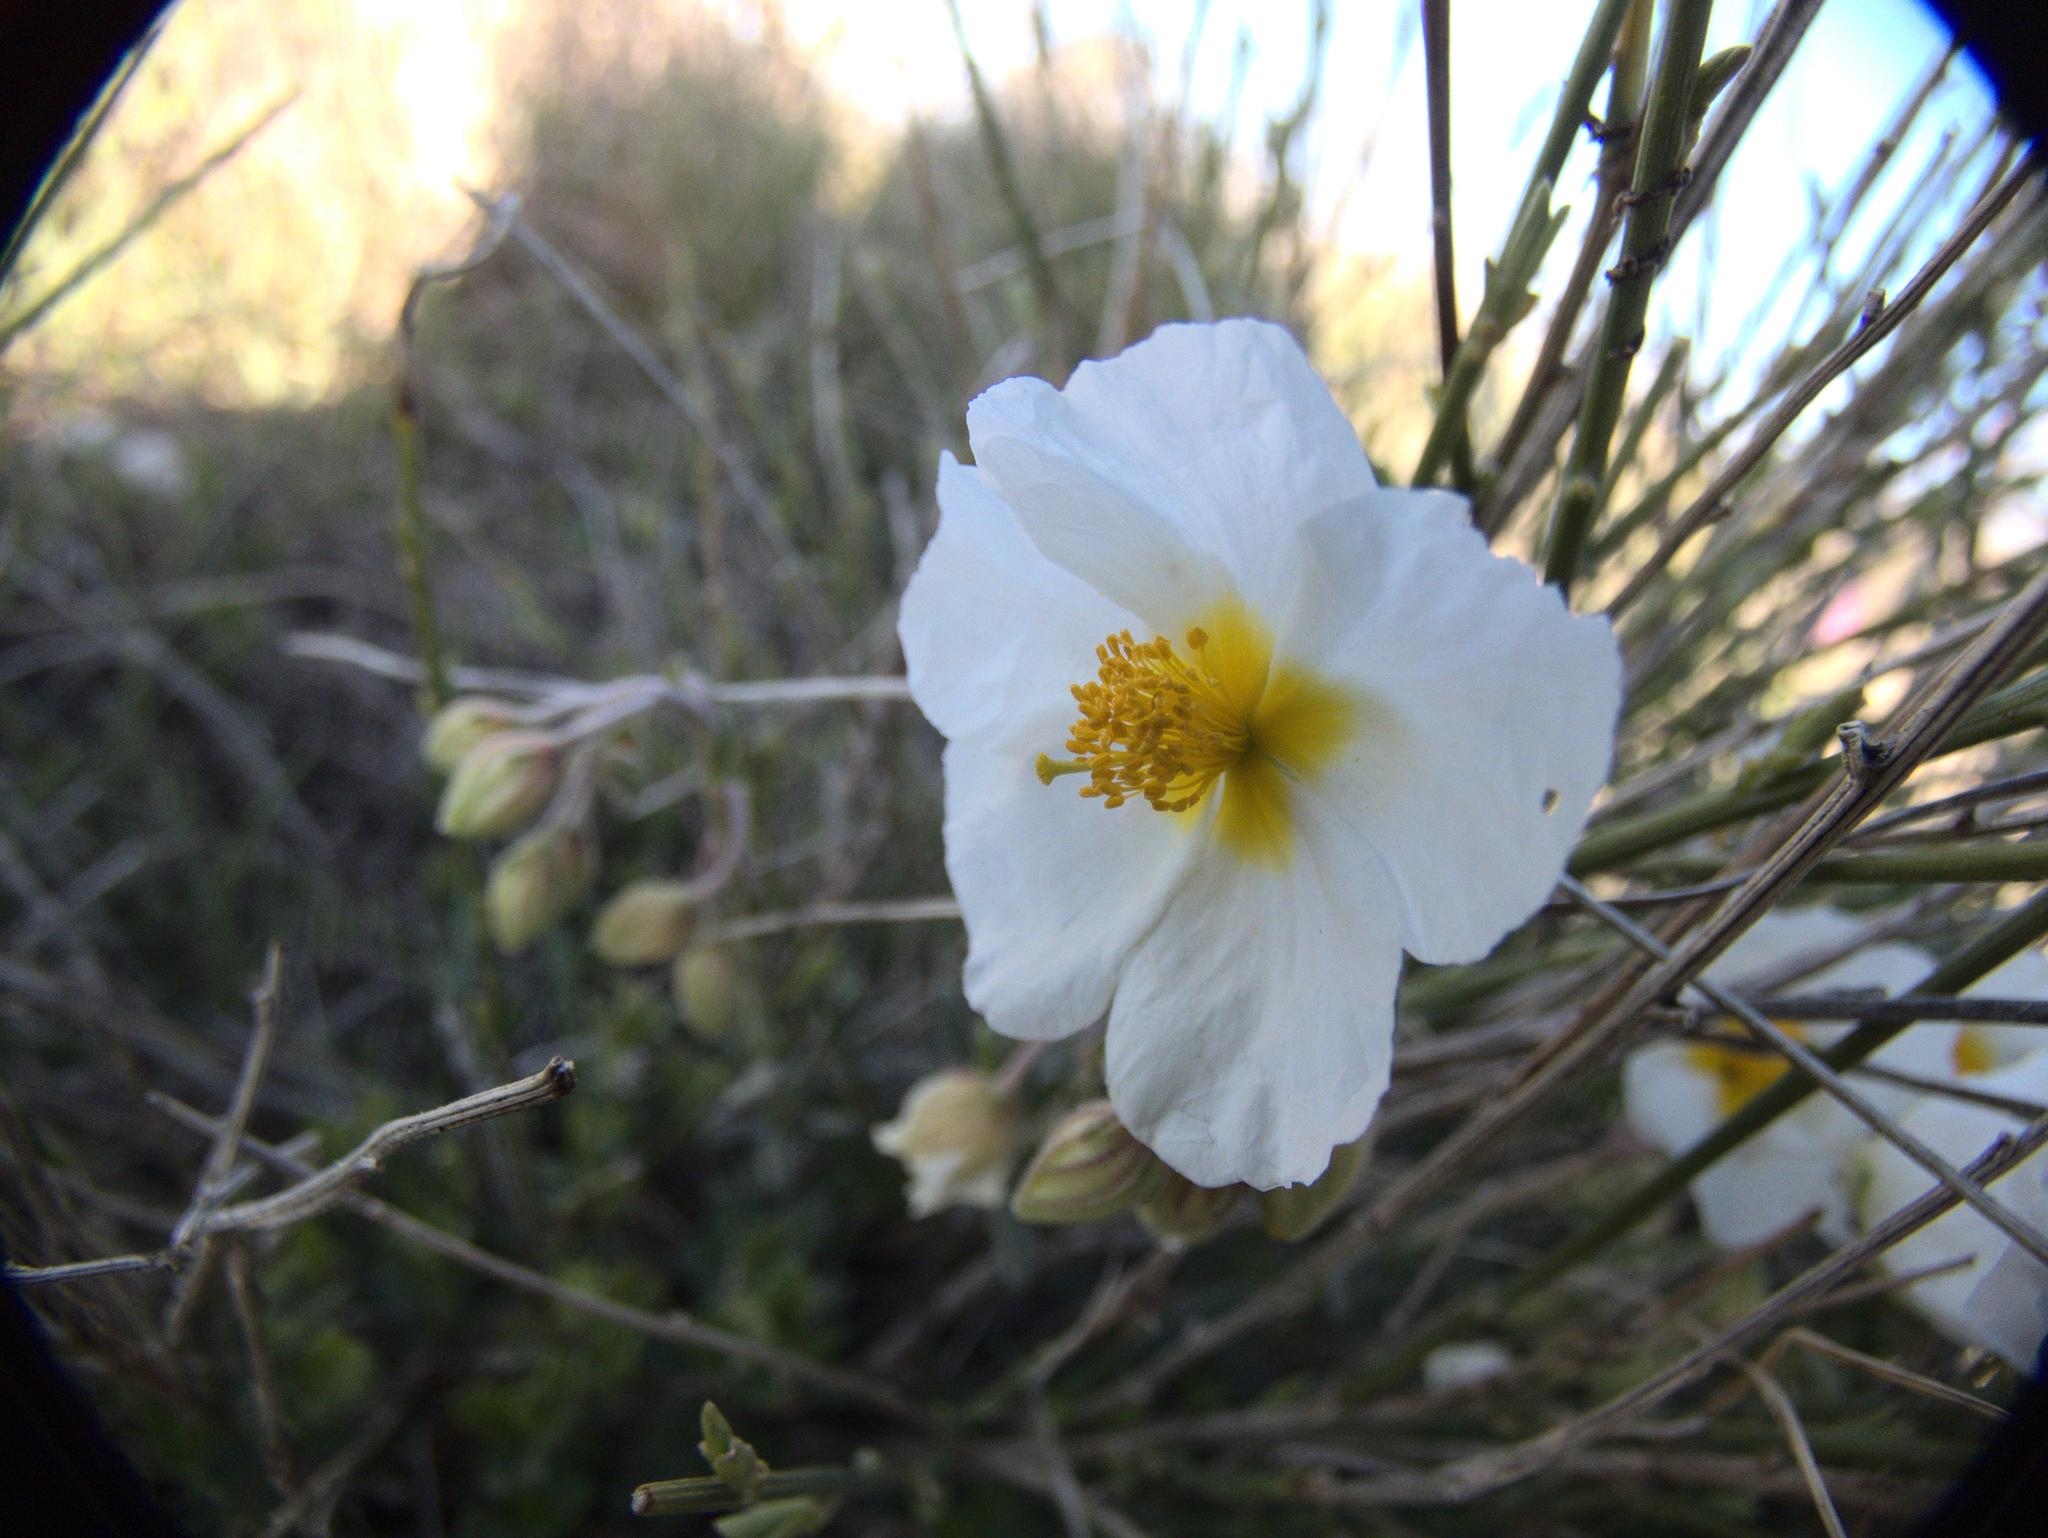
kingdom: Plantae
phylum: Tracheophyta
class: Magnoliopsida
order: Malvales
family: Cistaceae
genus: Helianthemum
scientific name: Helianthemum apenninum
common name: White rock-rose
